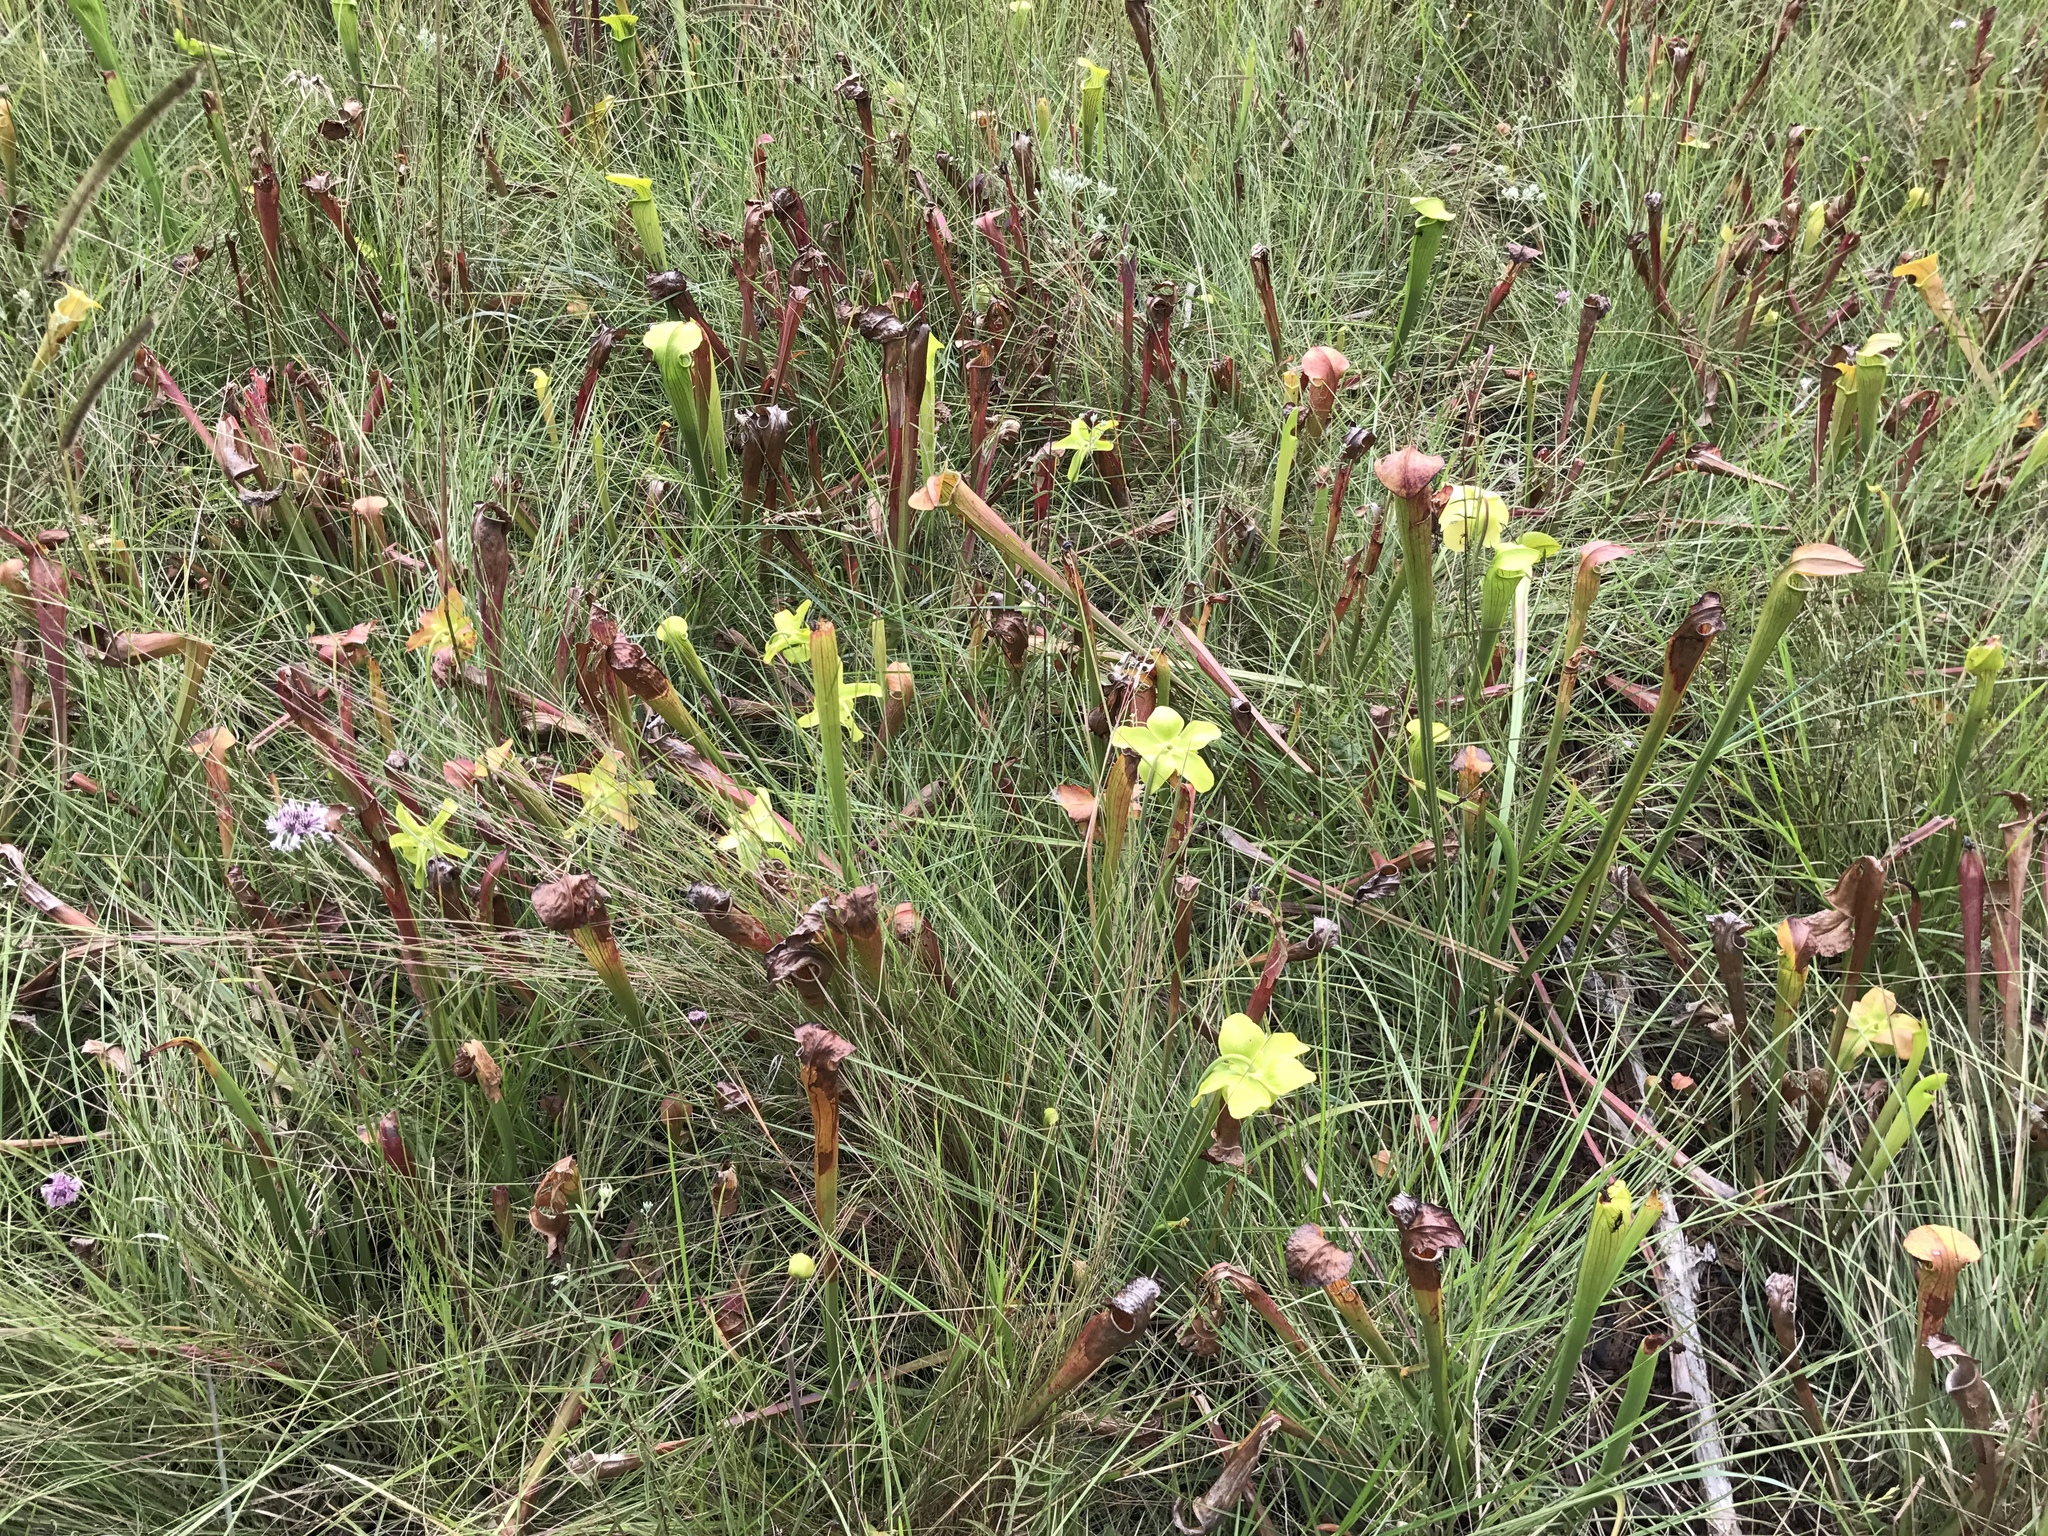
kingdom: Plantae
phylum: Tracheophyta
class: Magnoliopsida
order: Ericales
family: Sarraceniaceae
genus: Sarracenia
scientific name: Sarracenia alata
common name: Yellow trumpets
